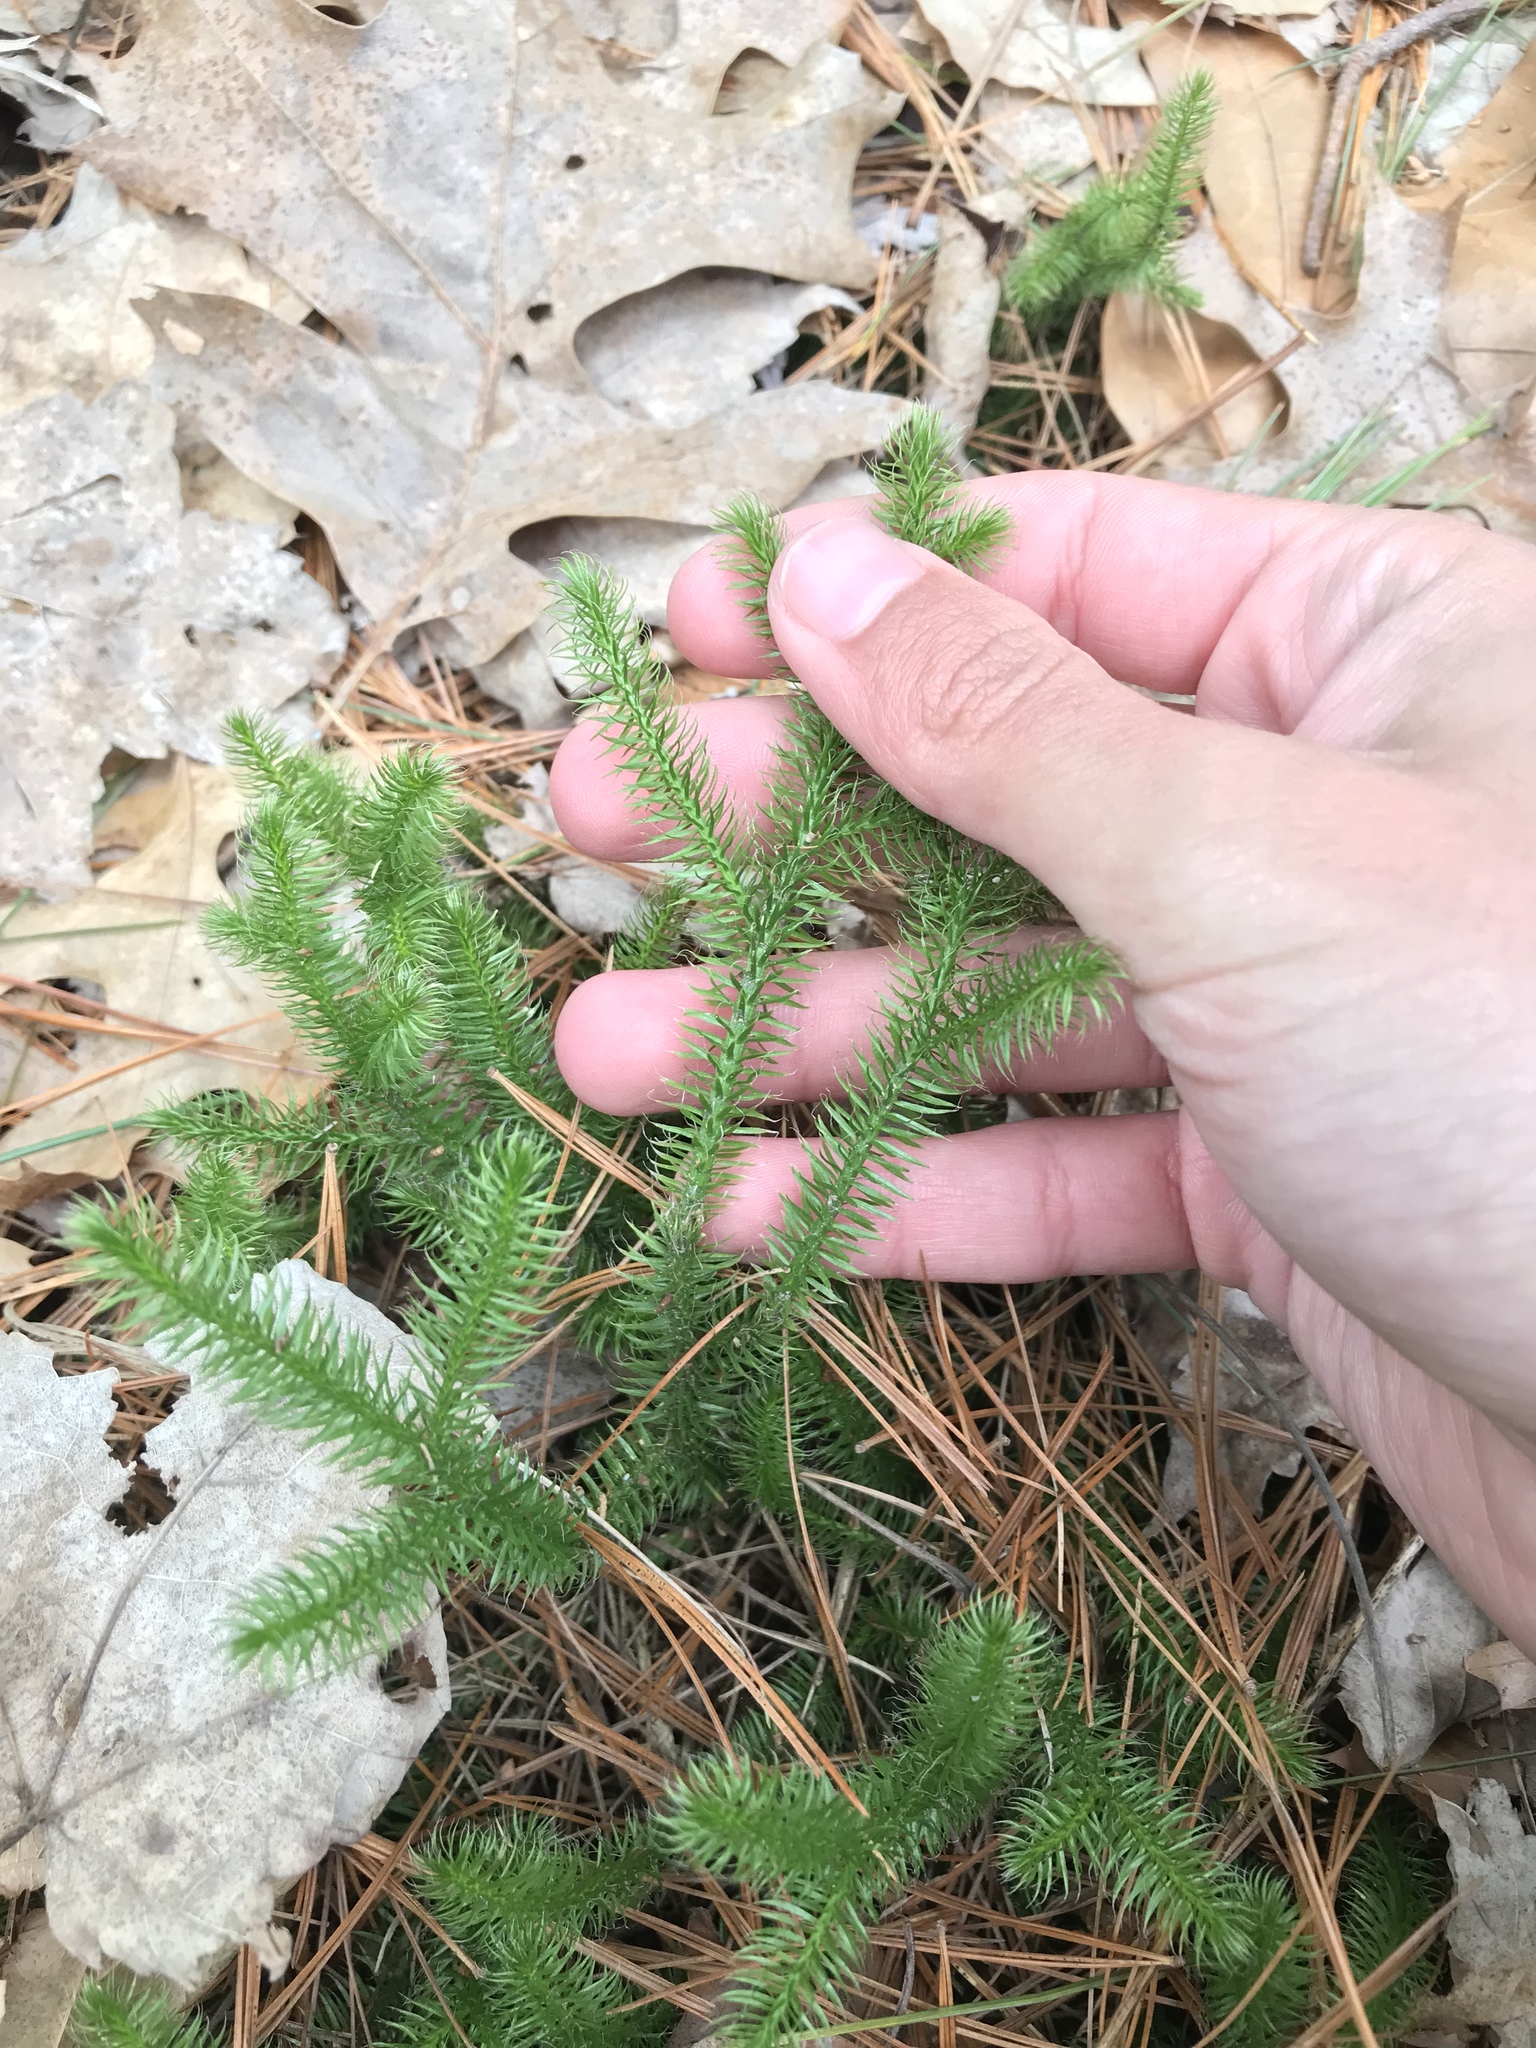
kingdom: Plantae
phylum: Tracheophyta
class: Lycopodiopsida
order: Lycopodiales
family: Lycopodiaceae
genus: Lycopodium
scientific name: Lycopodium clavatum
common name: Stag's-horn clubmoss
